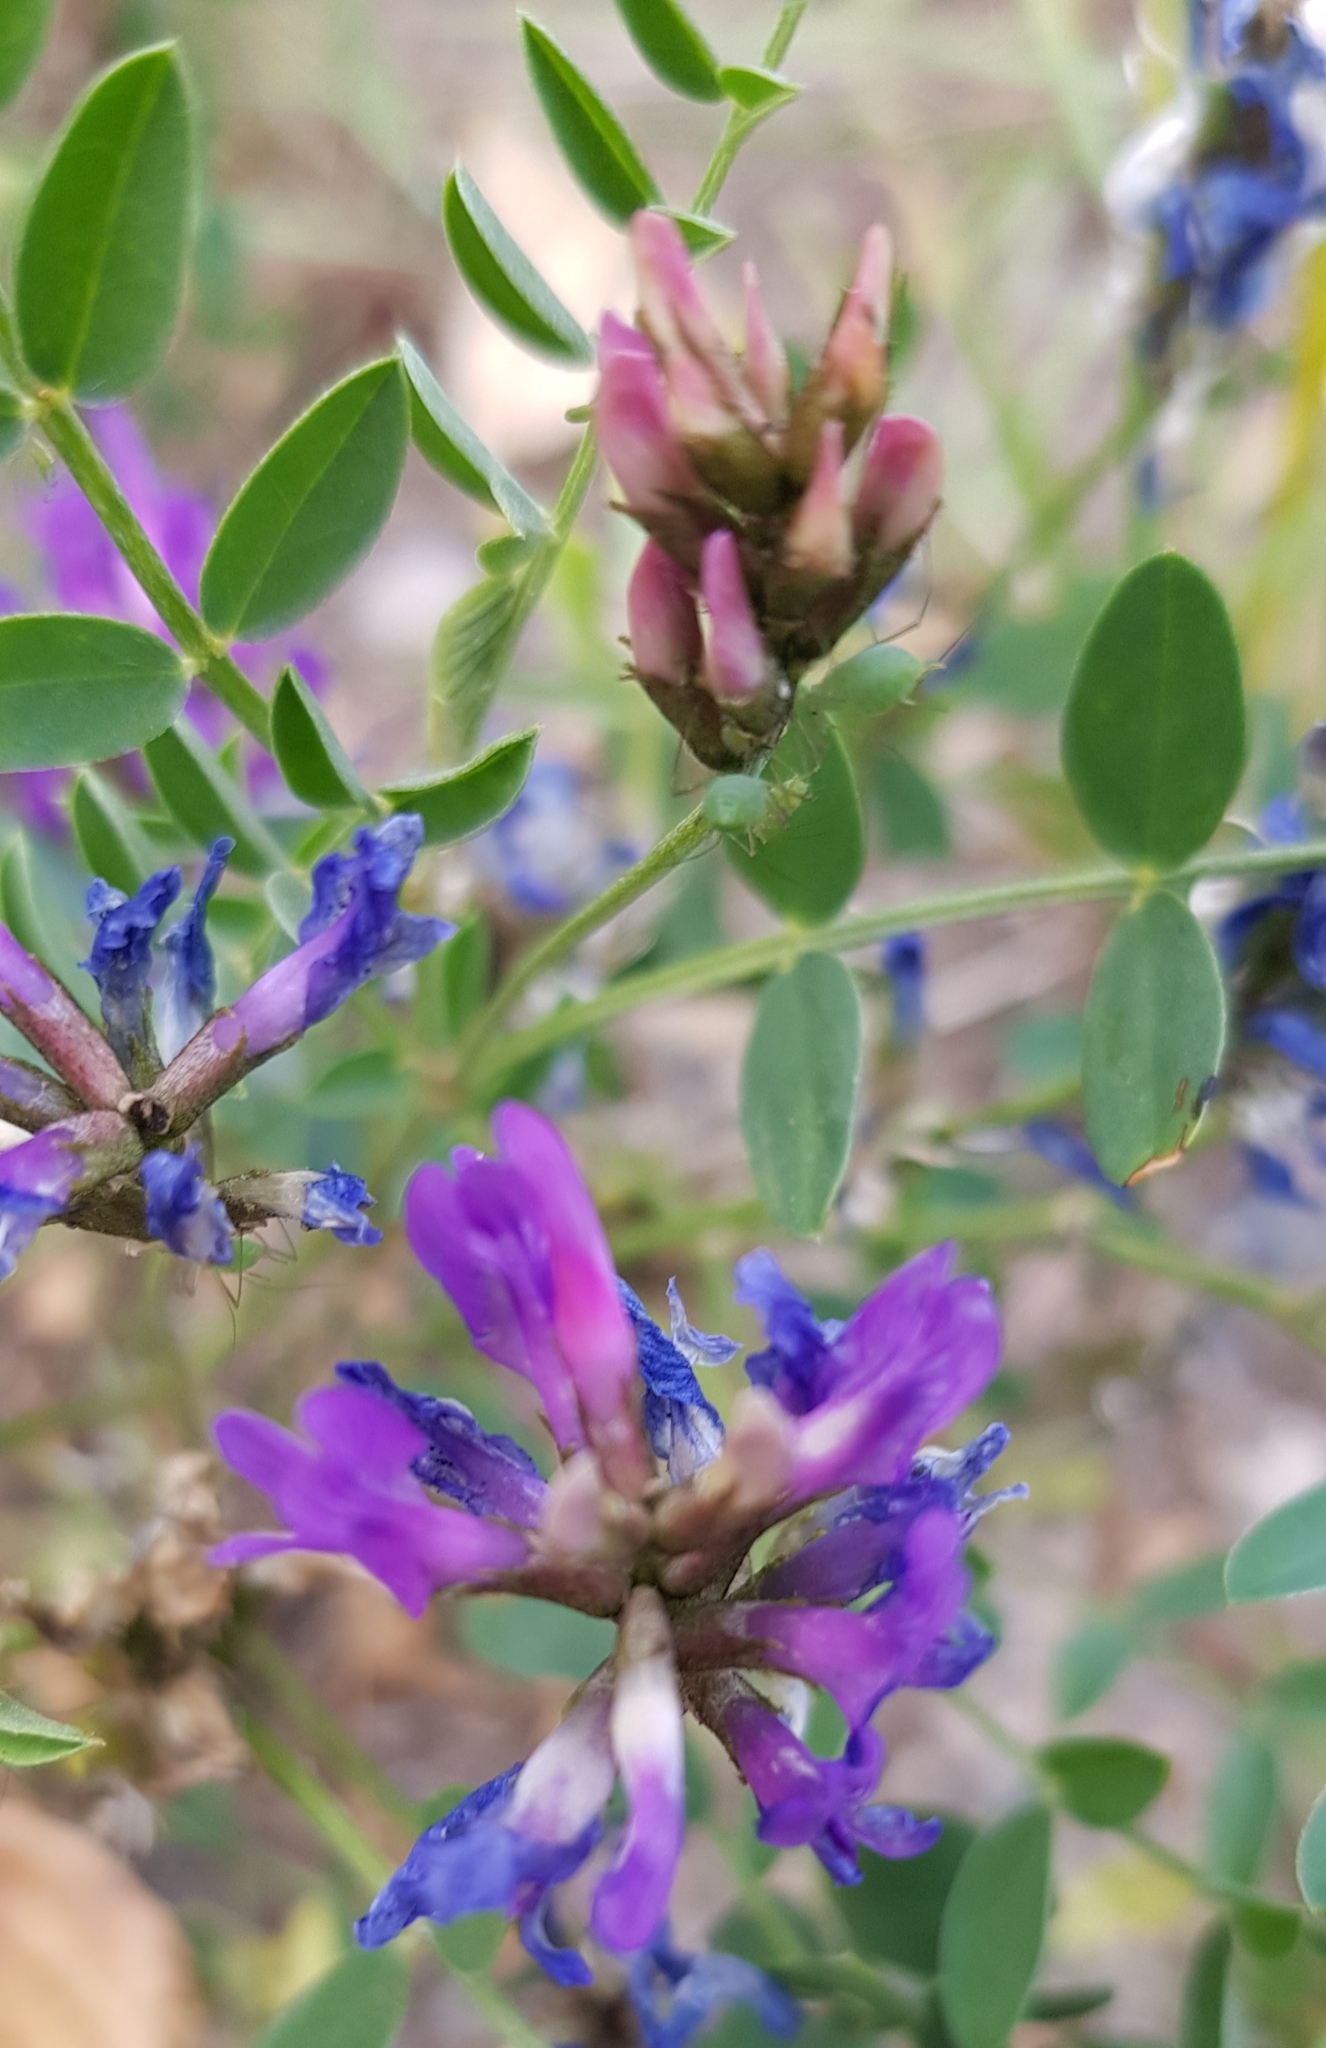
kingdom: Plantae
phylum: Tracheophyta
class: Magnoliopsida
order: Fabales
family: Fabaceae
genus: Astragalus
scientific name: Astragalus laxmannii
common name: Laxmann's milk-vetch
